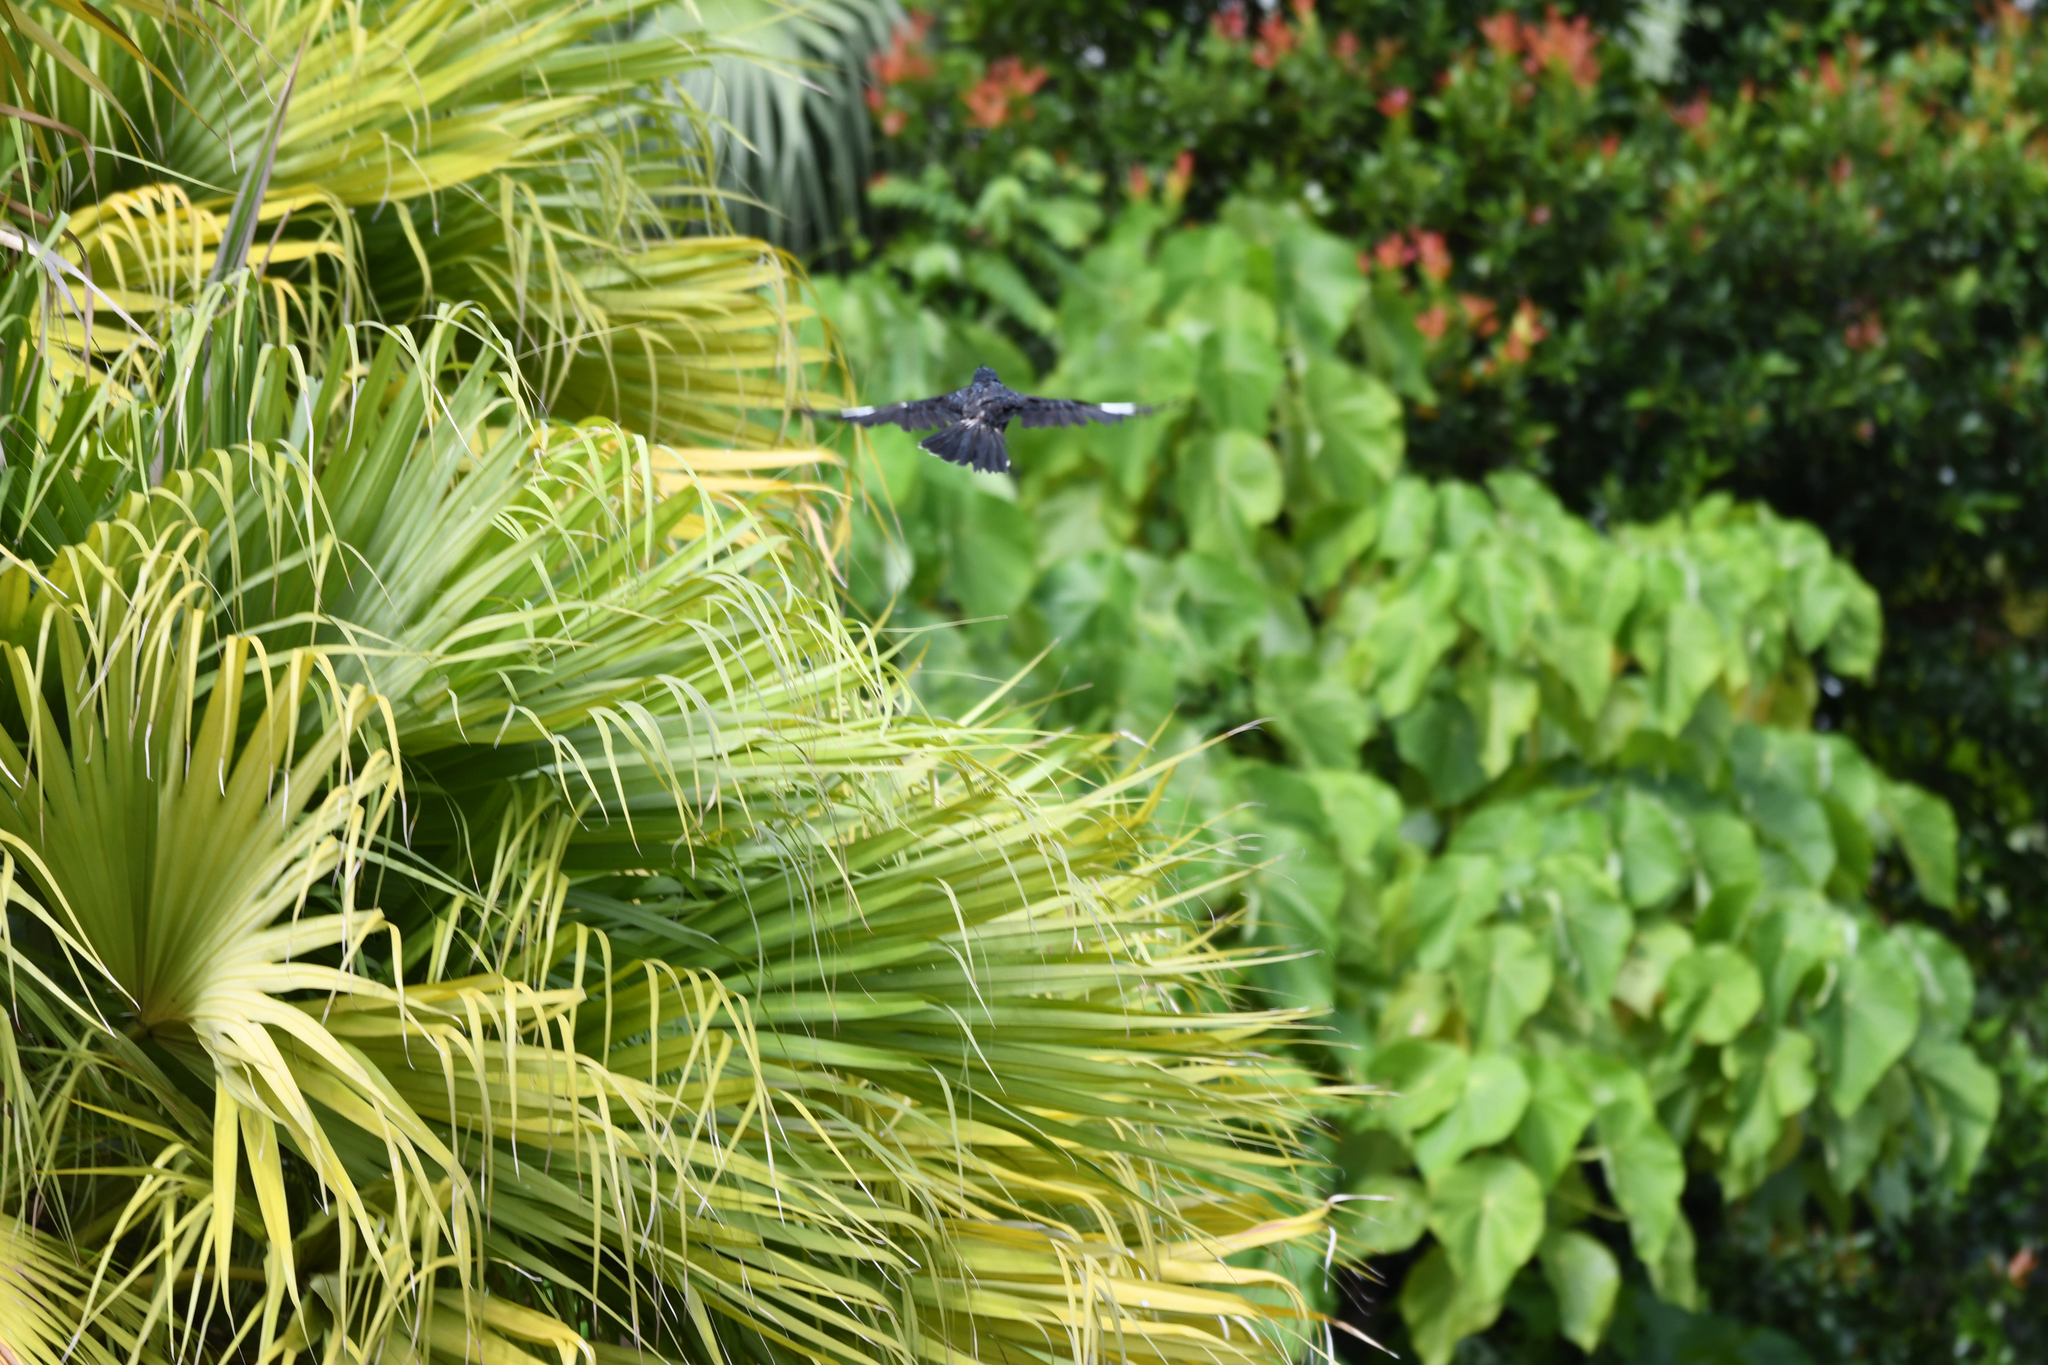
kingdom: Animalia
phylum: Chordata
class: Aves
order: Passeriformes
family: Sturnidae
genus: Acridotheres
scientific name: Acridotheres cristatellus
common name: Crested myna
